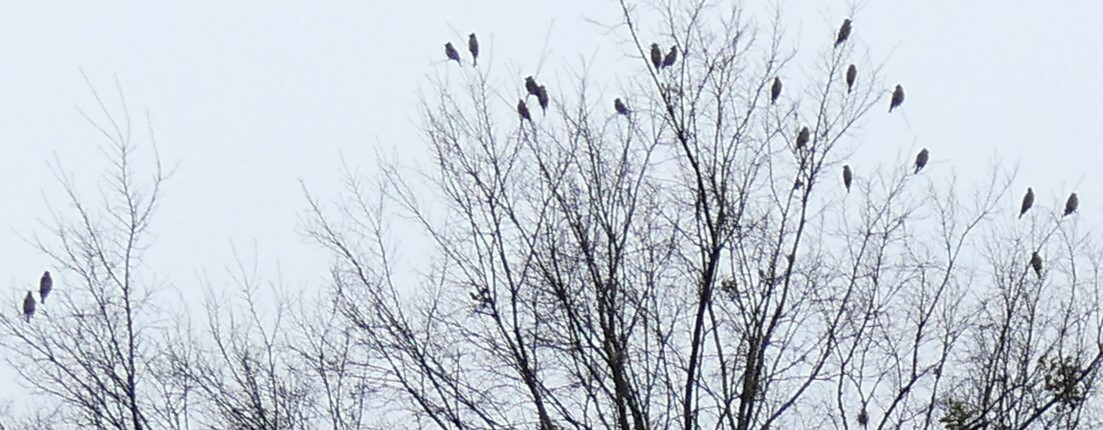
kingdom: Animalia
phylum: Chordata
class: Aves
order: Passeriformes
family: Bombycillidae
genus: Bombycilla
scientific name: Bombycilla cedrorum
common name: Cedar waxwing
